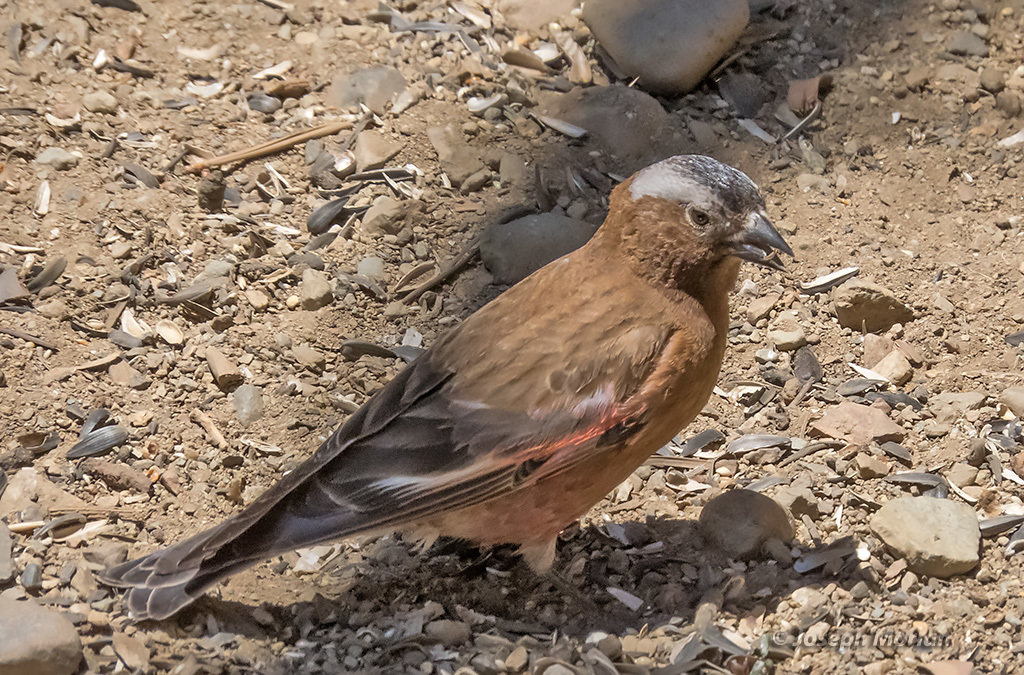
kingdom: Animalia
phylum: Chordata
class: Aves
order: Passeriformes
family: Fringillidae
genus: Leucosticte
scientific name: Leucosticte tephrocotis
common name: Gray-crowned rosy-finch
